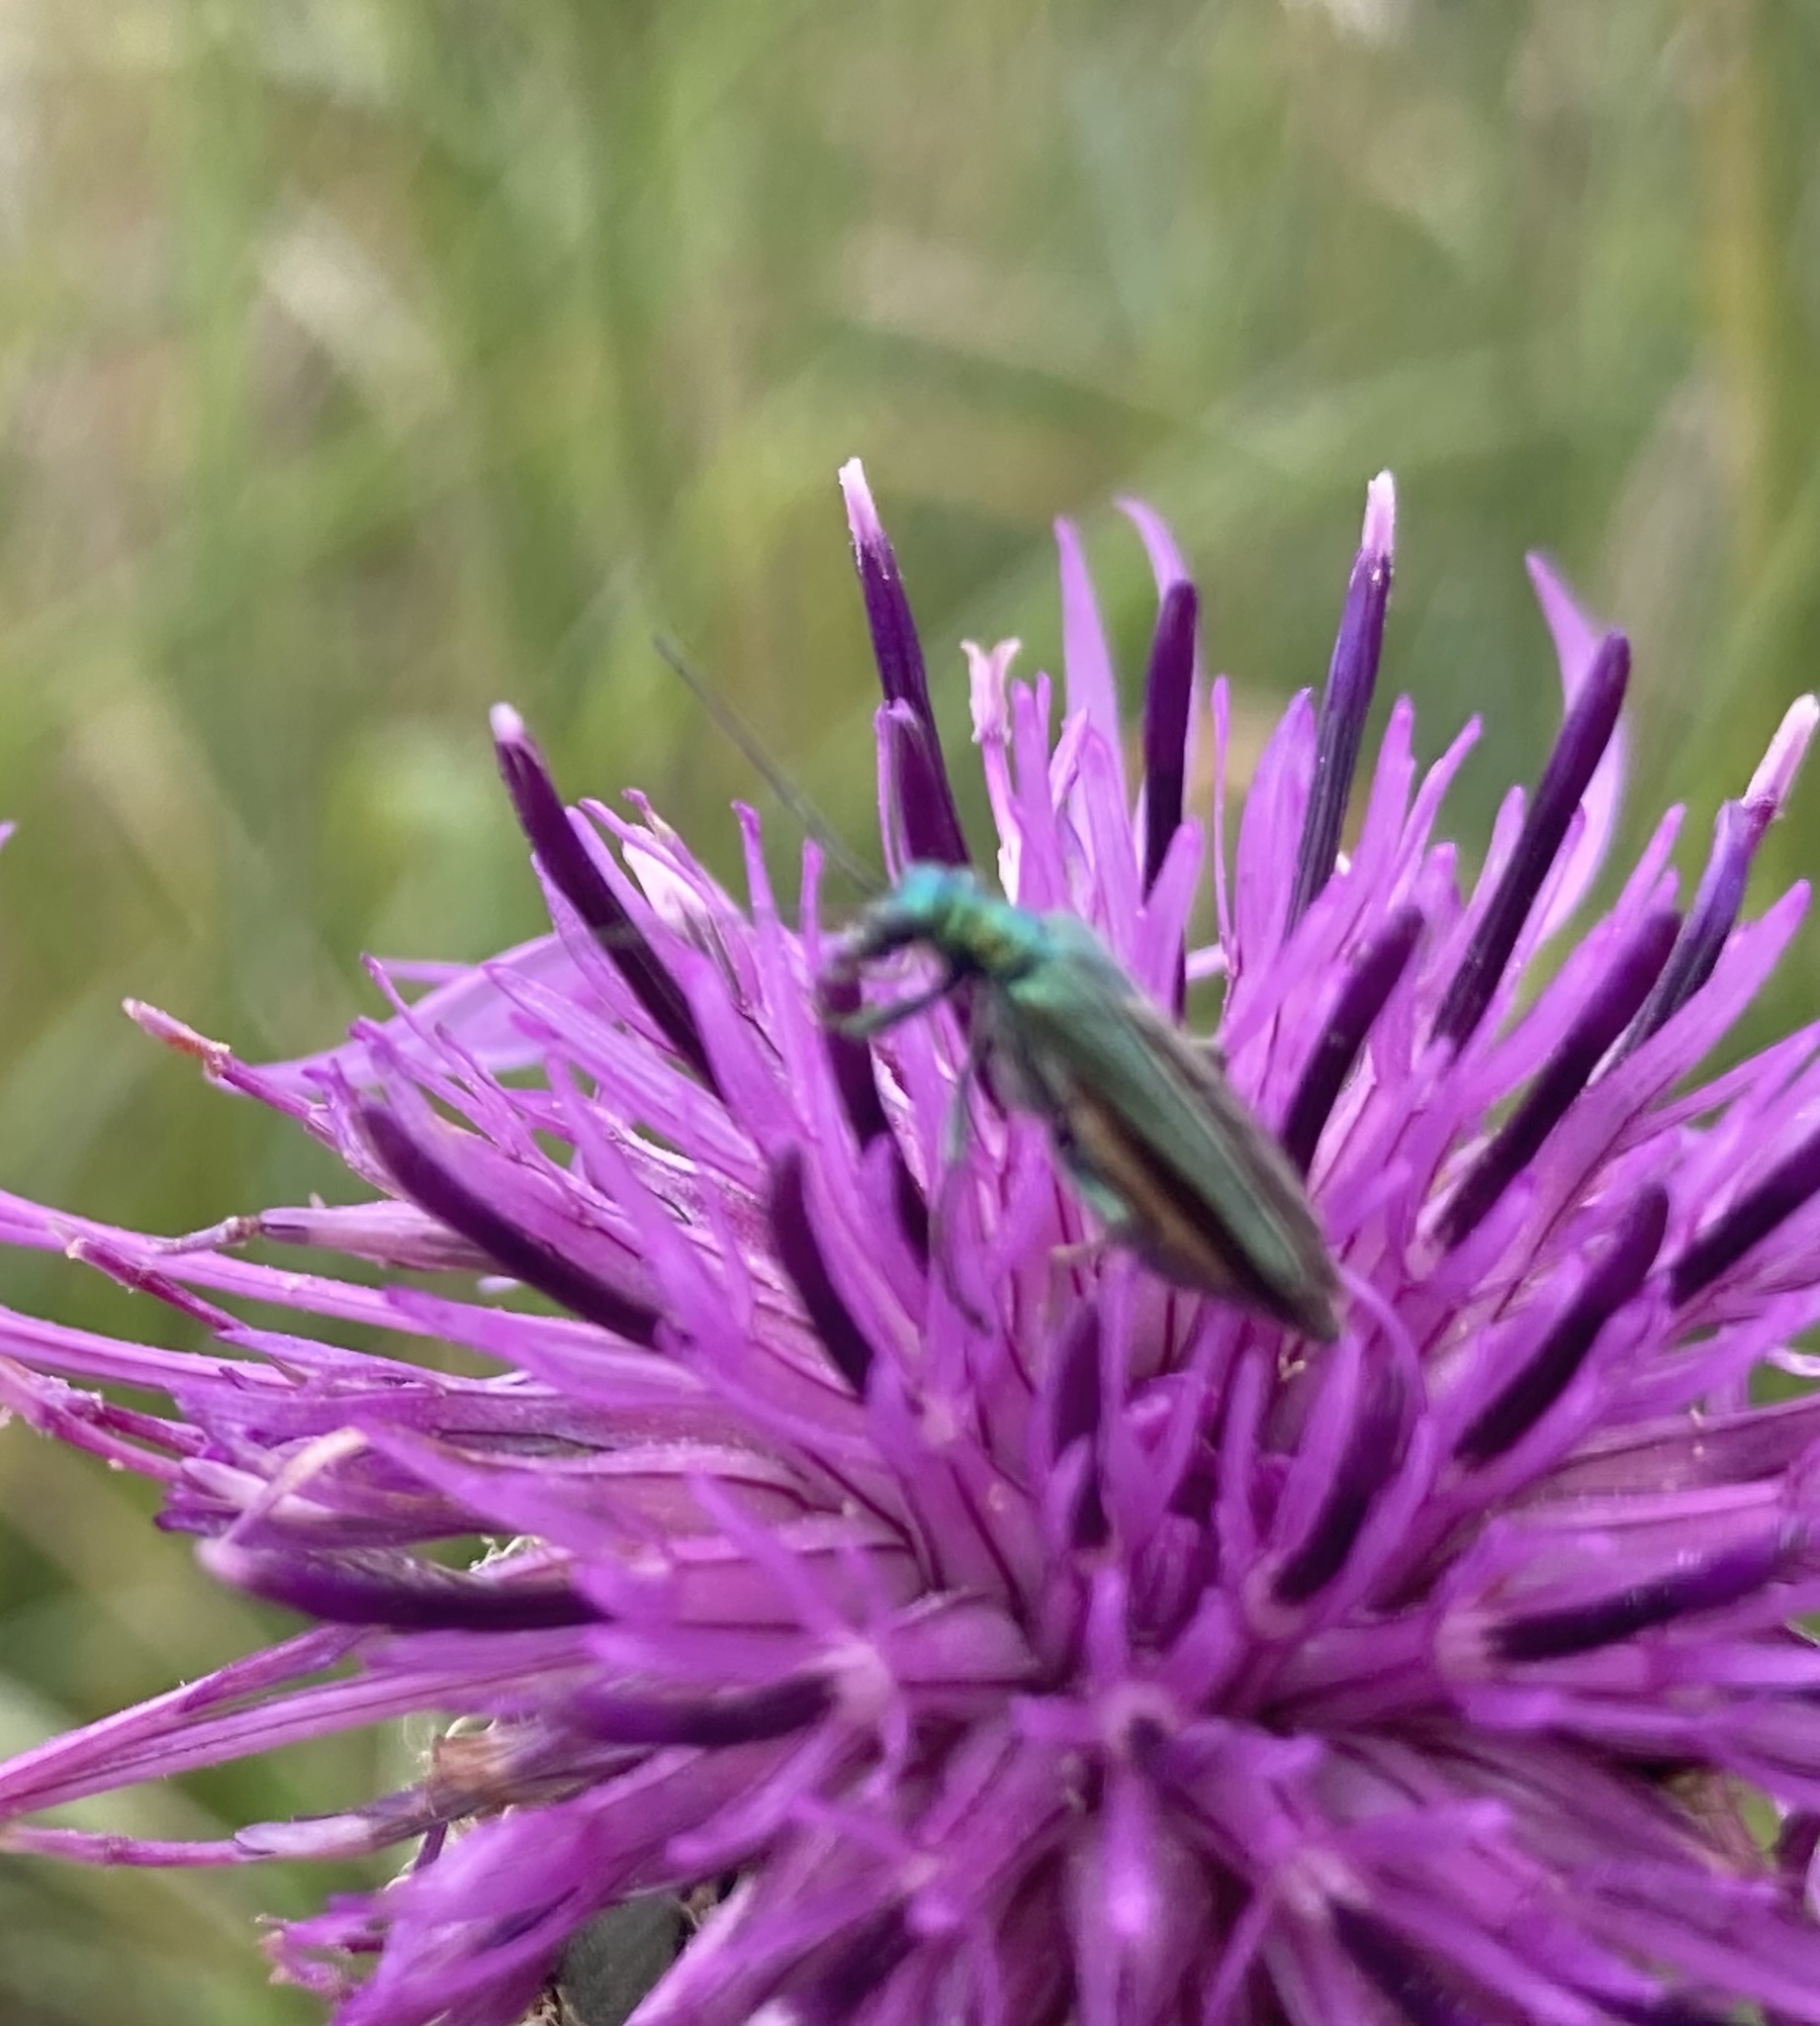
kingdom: Animalia
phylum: Arthropoda
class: Insecta
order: Coleoptera
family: Oedemeridae
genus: Oedemera
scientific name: Oedemera nobilis
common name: Swollen-thighed beetle
